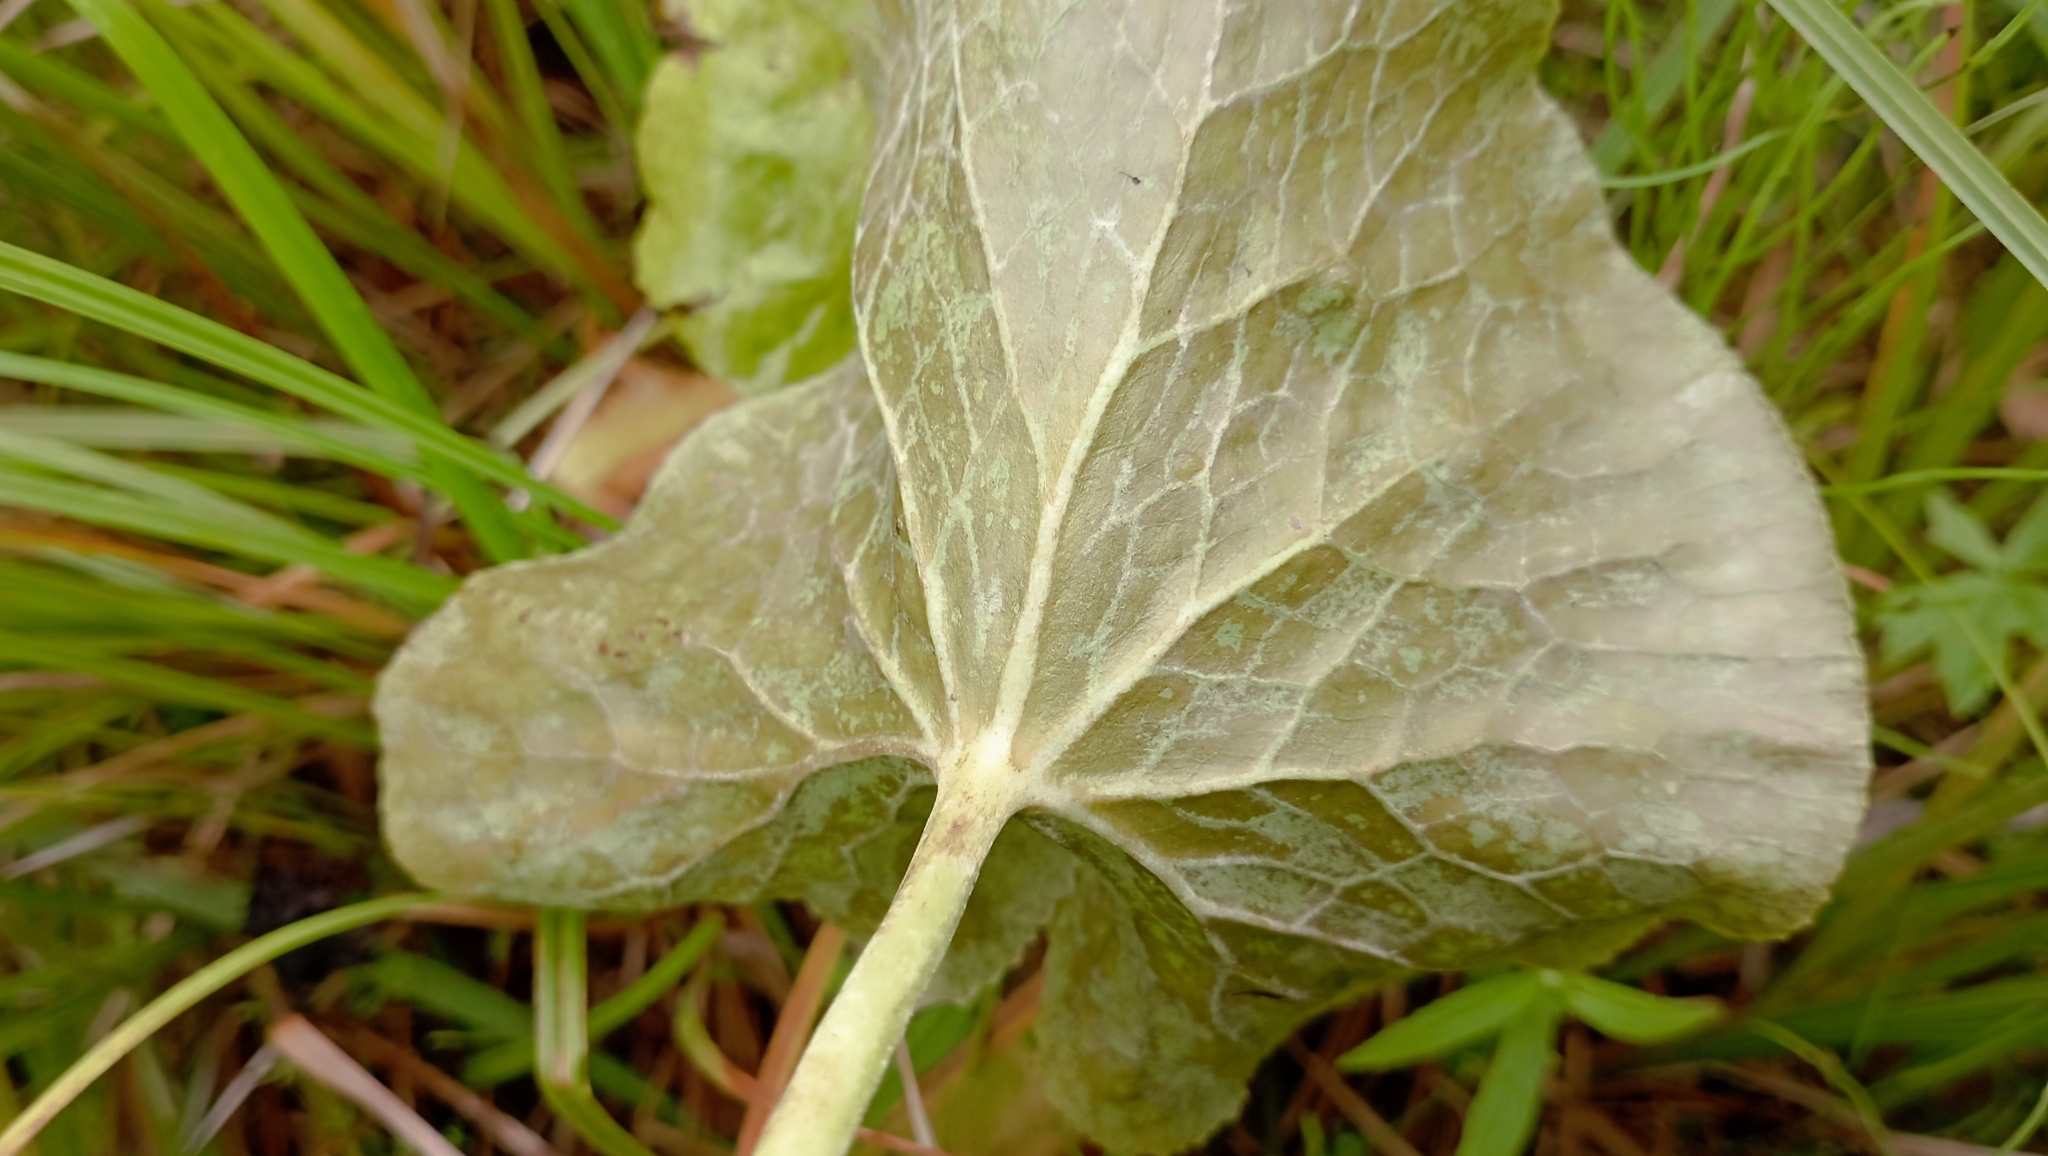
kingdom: Plantae
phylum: Tracheophyta
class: Magnoliopsida
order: Ranunculales
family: Ranunculaceae
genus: Caltha
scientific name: Caltha palustris
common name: Marsh marigold
